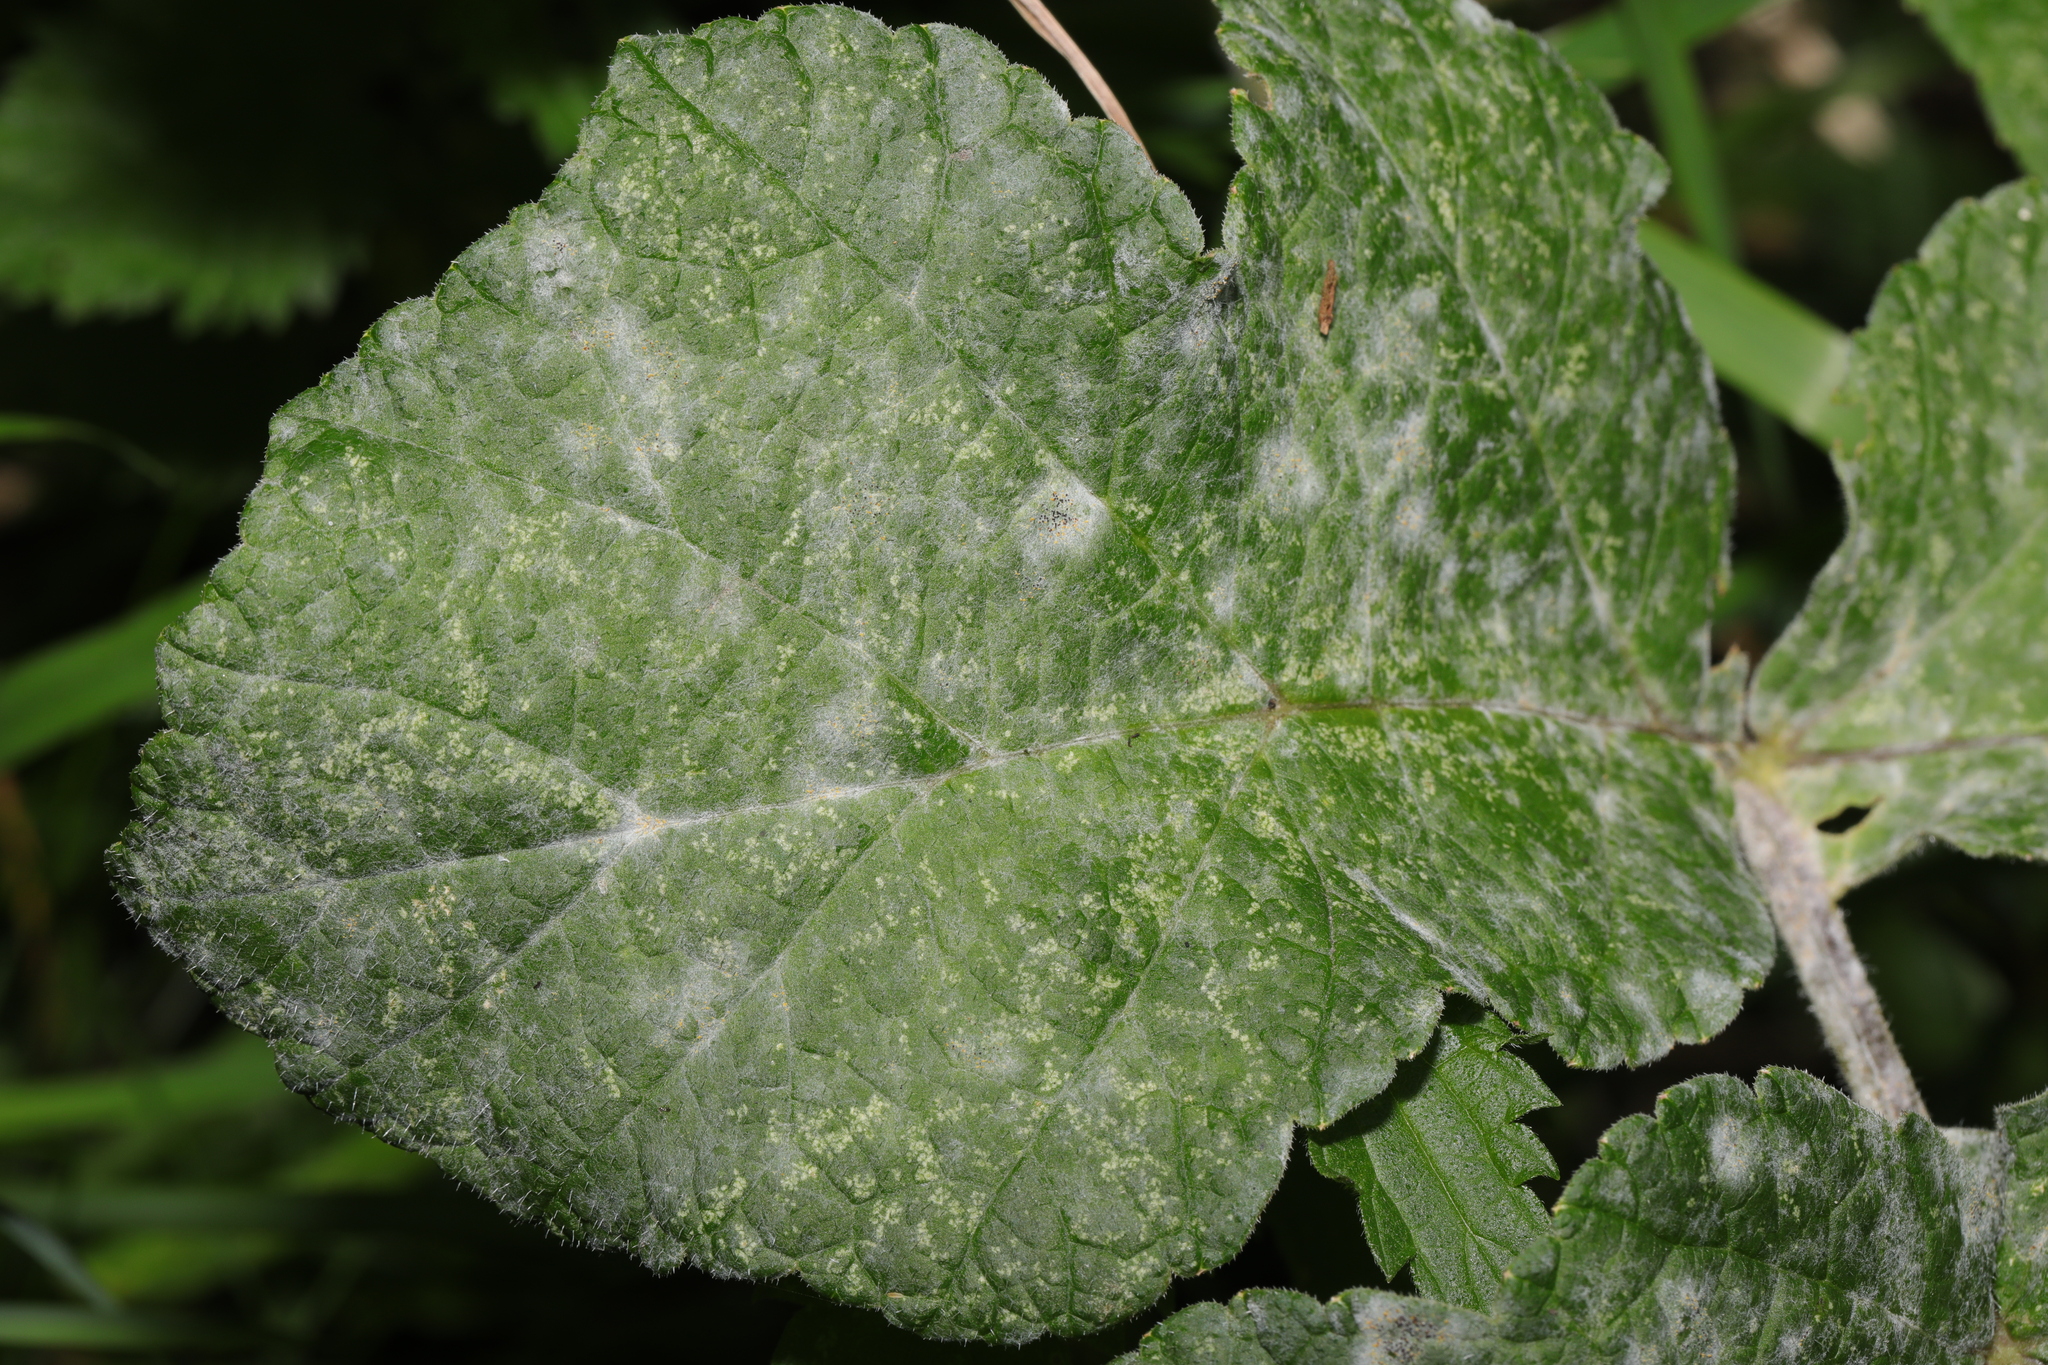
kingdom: Fungi
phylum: Ascomycota
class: Leotiomycetes
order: Helotiales
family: Erysiphaceae
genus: Erysiphe
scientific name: Erysiphe heraclei
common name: Umbellifer mildew
